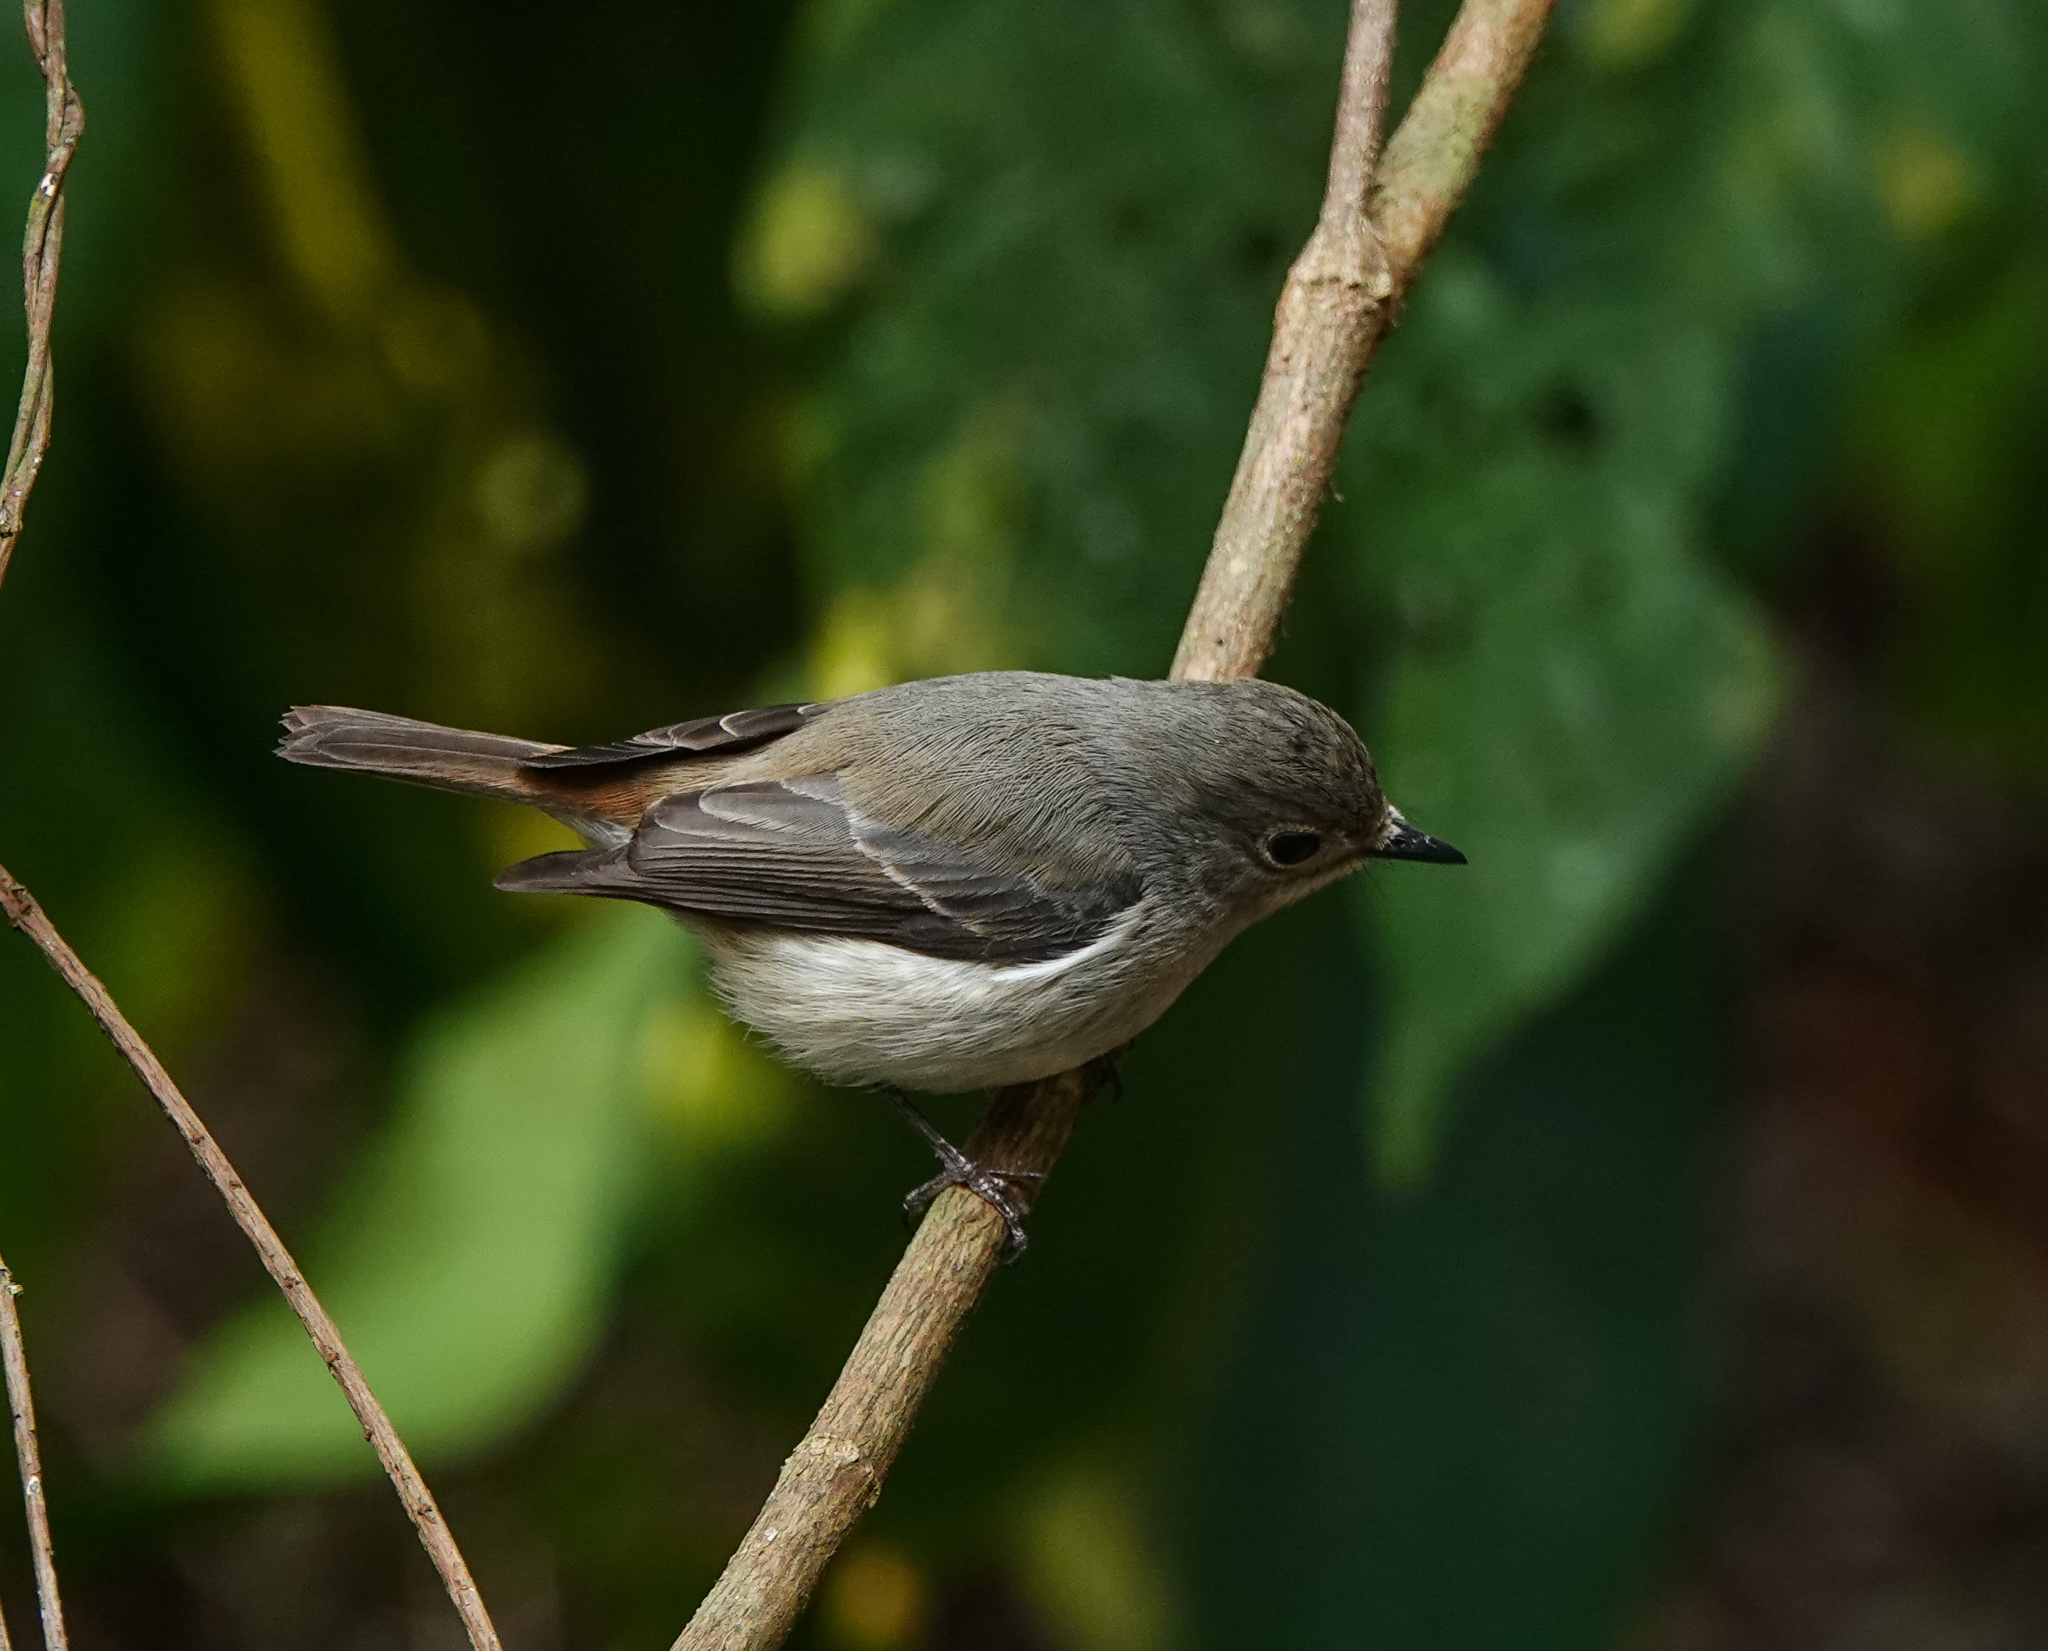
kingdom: Animalia
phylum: Chordata
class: Aves
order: Passeriformes
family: Muscicapidae
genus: Ficedula
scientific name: Ficedula westermanni
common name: Little pied flycatcher
